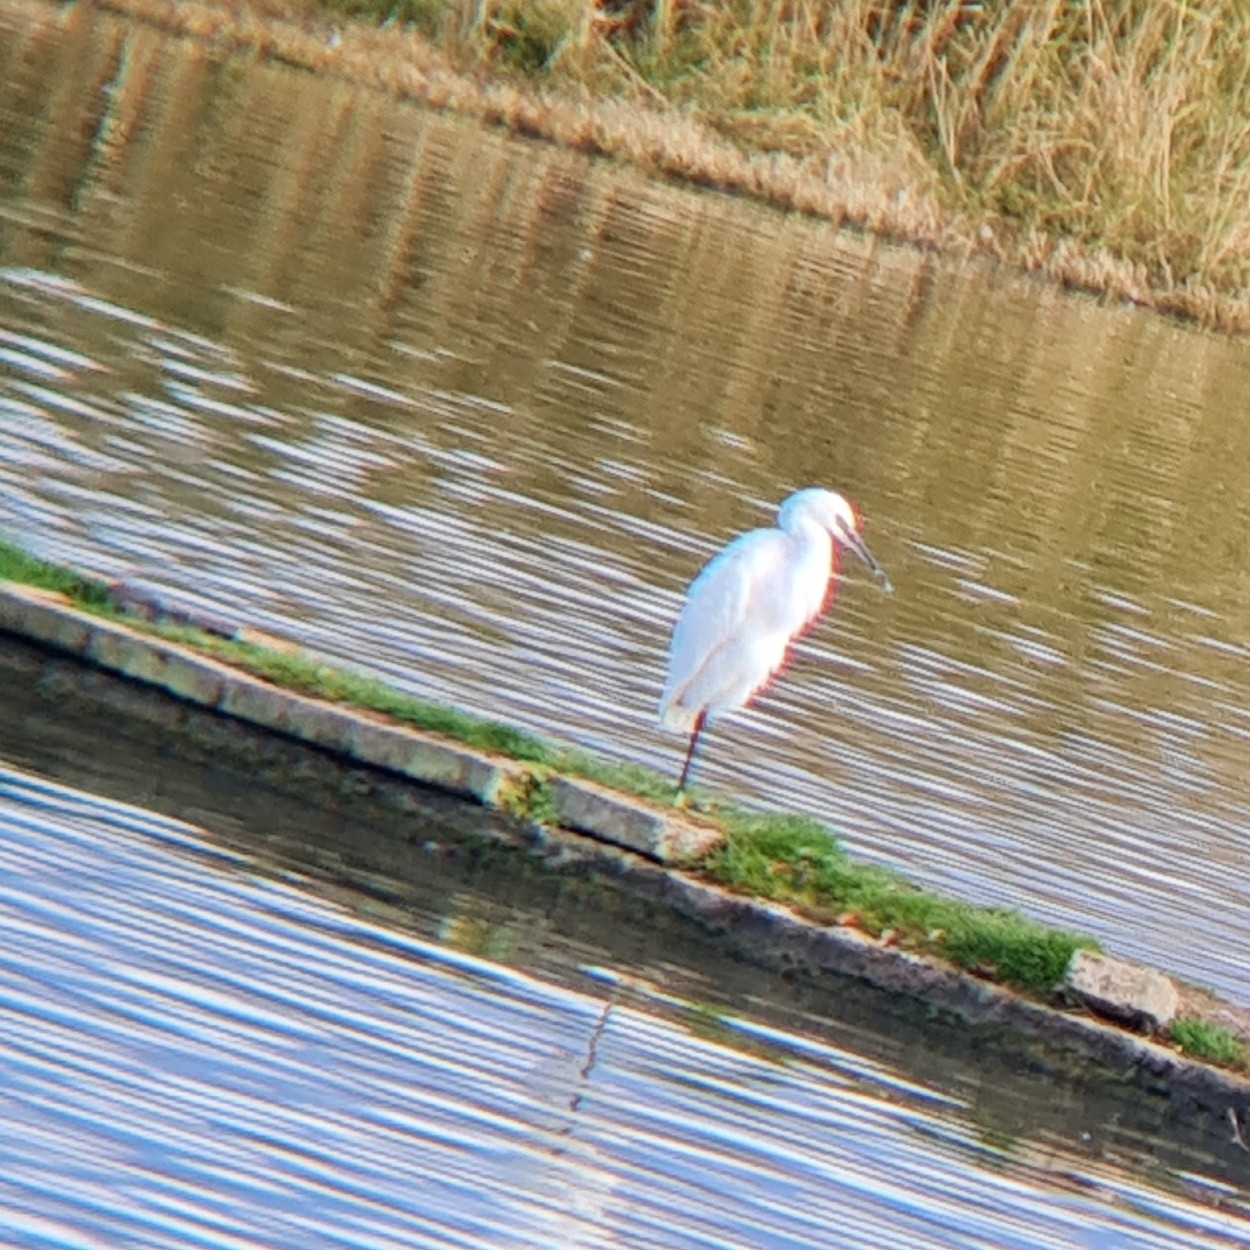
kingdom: Animalia
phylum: Chordata
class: Aves
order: Pelecaniformes
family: Ardeidae
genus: Egretta
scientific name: Egretta garzetta
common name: Little egret
